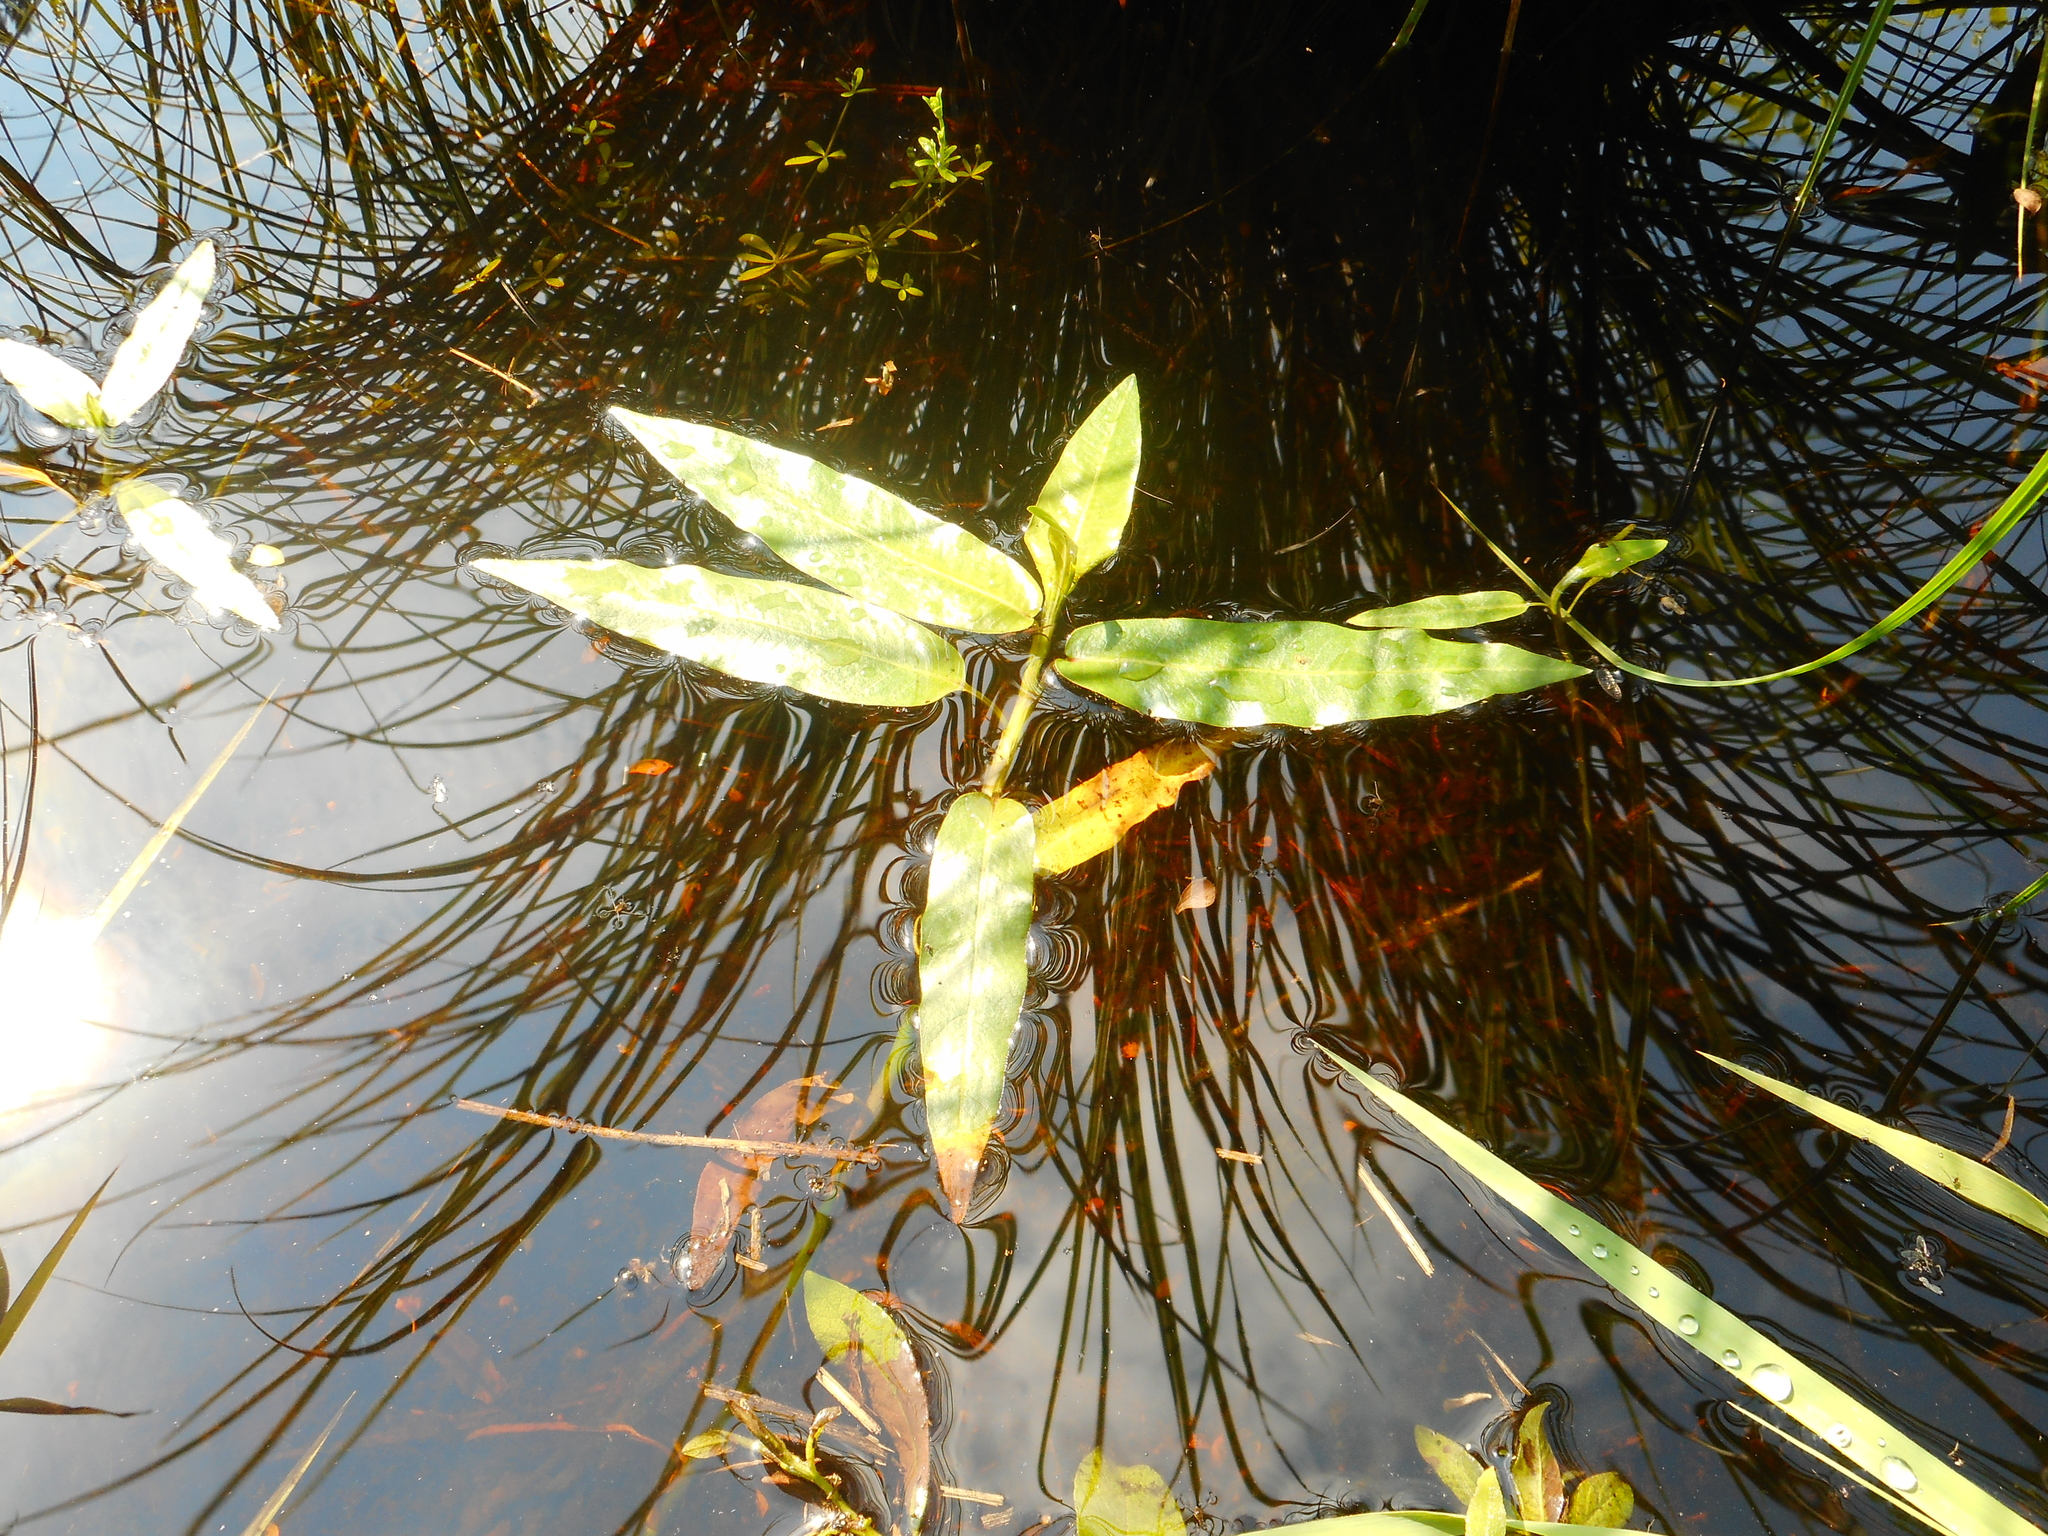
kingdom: Plantae
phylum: Tracheophyta
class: Magnoliopsida
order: Caryophyllales
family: Polygonaceae
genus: Persicaria
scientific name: Persicaria amphibia
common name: Amphibious bistort
